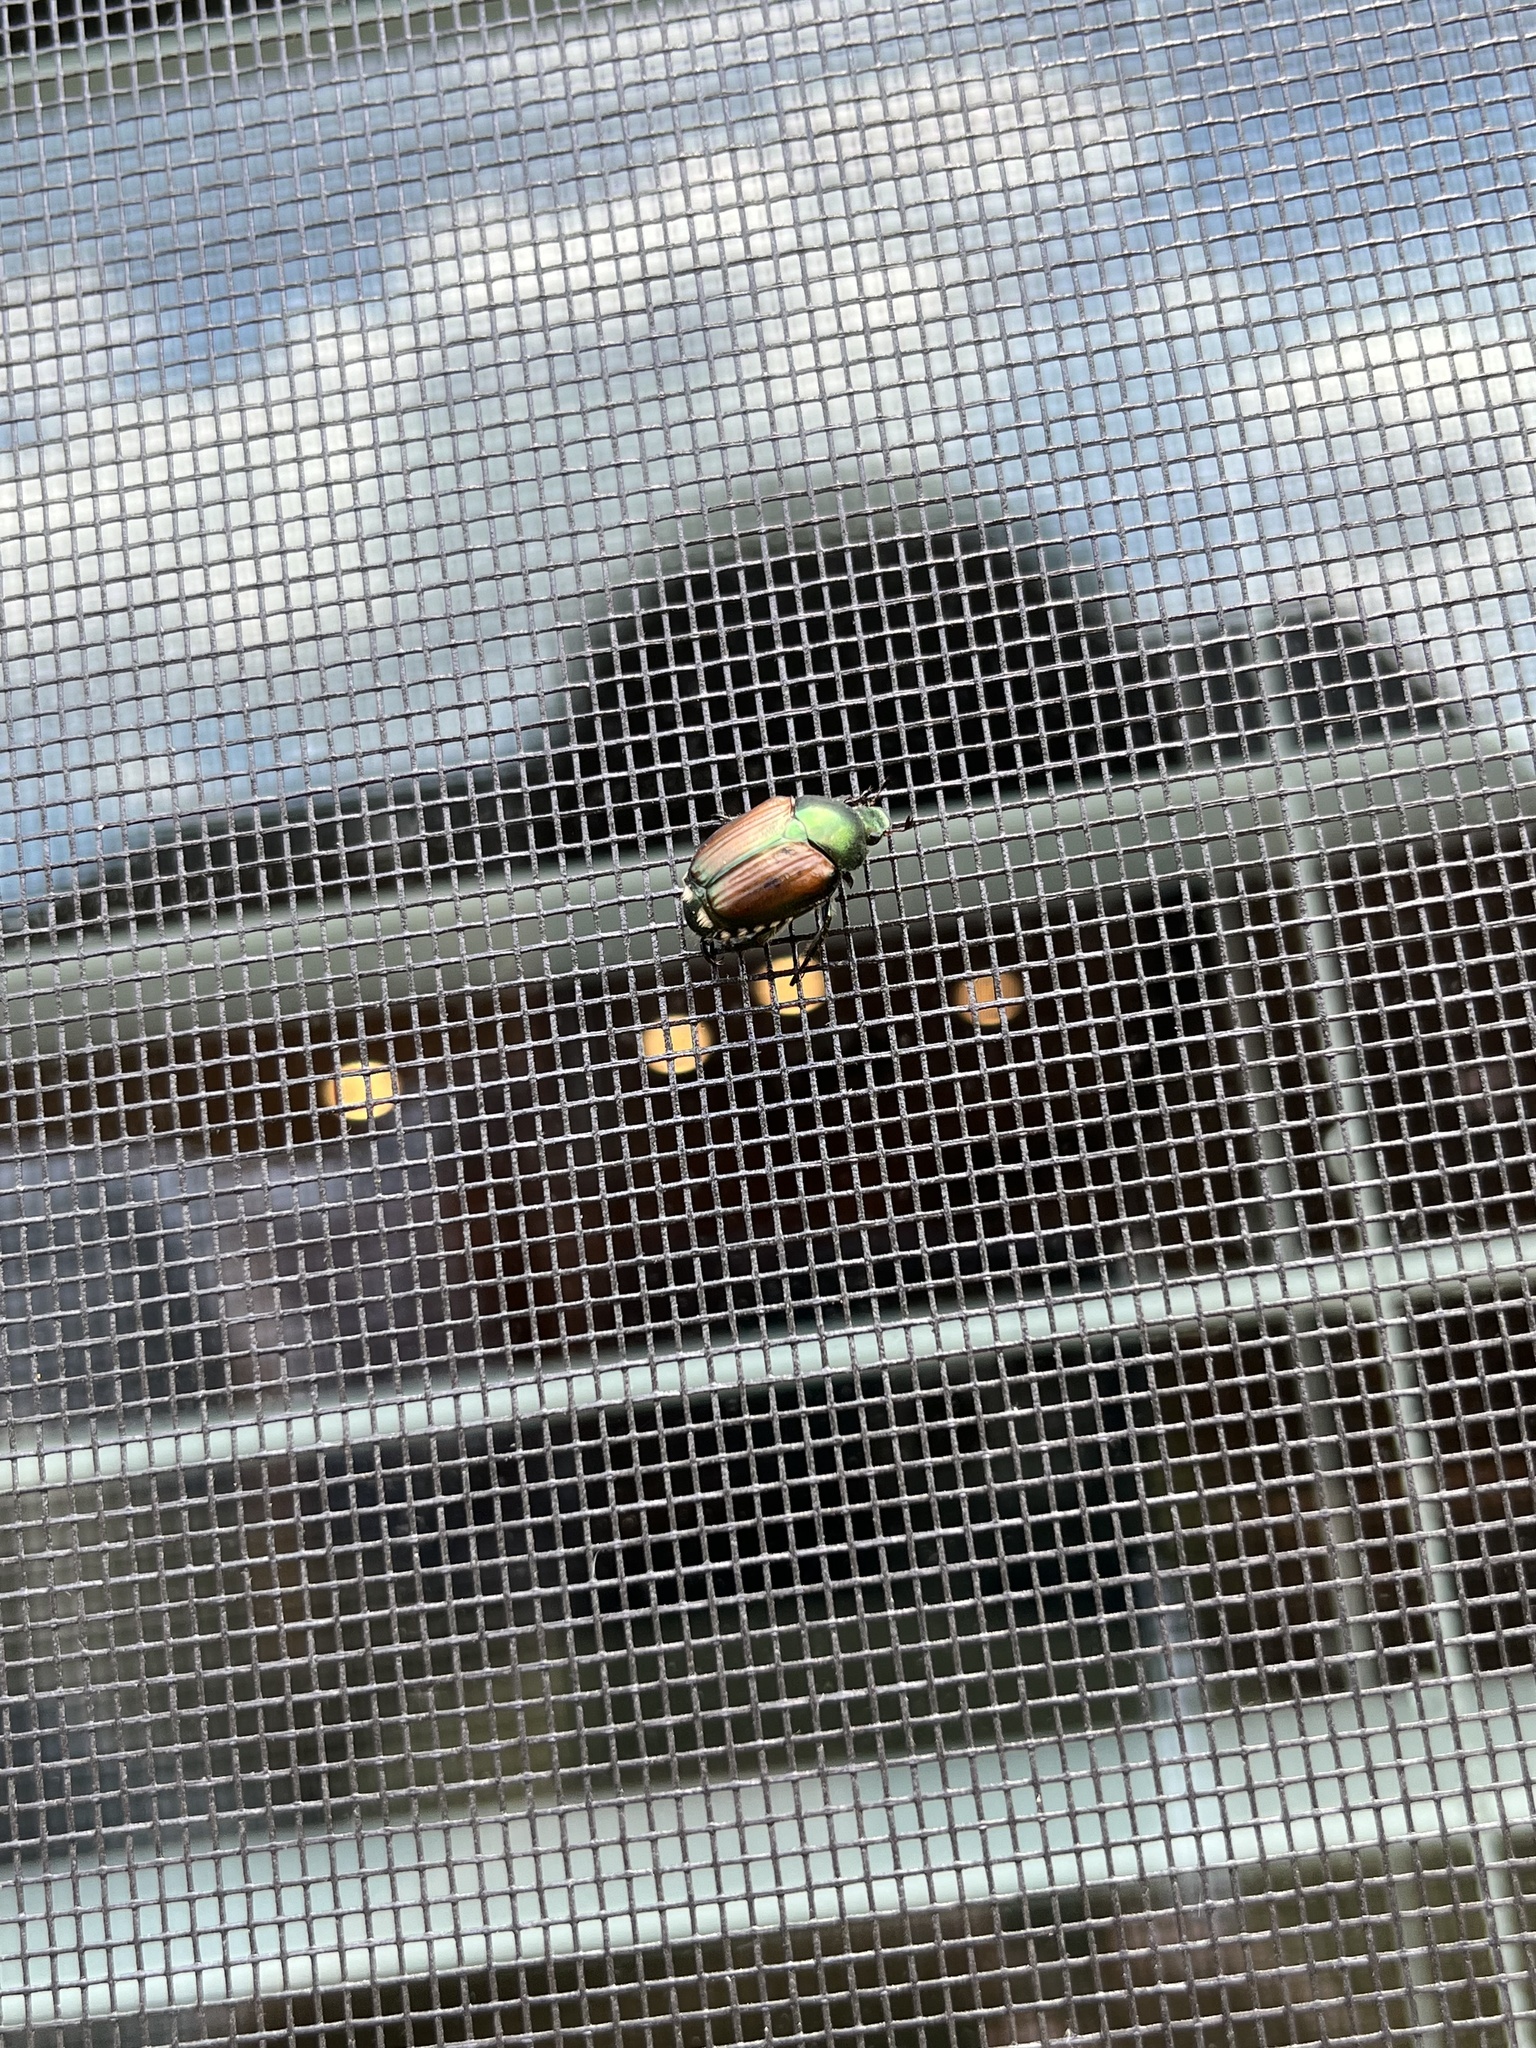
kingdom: Animalia
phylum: Arthropoda
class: Insecta
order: Coleoptera
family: Scarabaeidae
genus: Popillia
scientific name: Popillia japonica
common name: Japanese beetle
